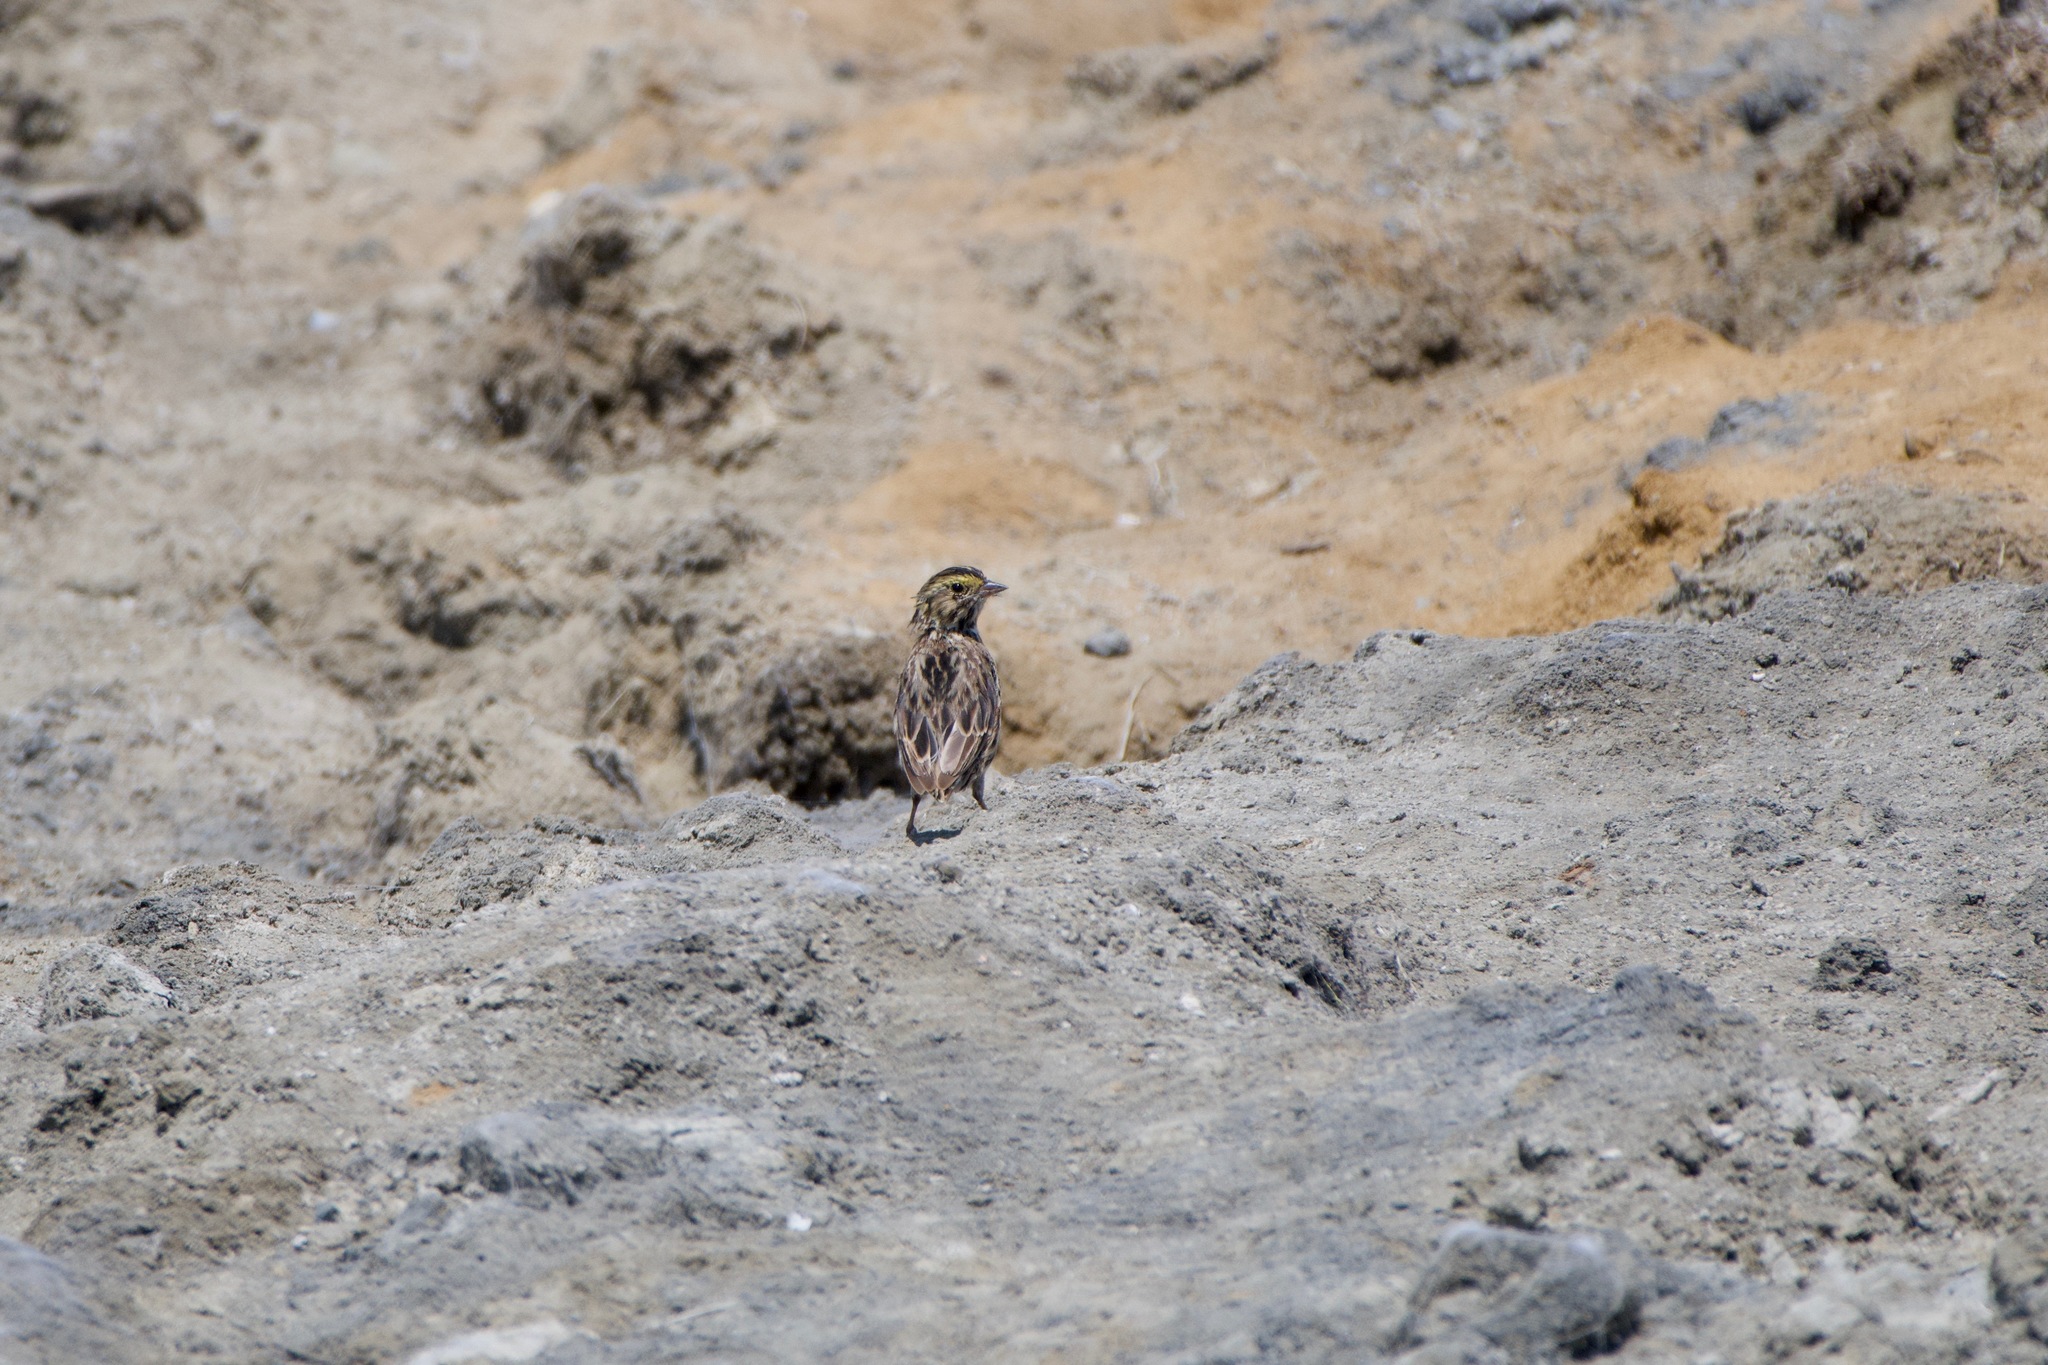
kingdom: Animalia
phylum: Chordata
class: Aves
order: Passeriformes
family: Passerellidae
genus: Passerculus
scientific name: Passerculus sandwichensis
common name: Savannah sparrow
